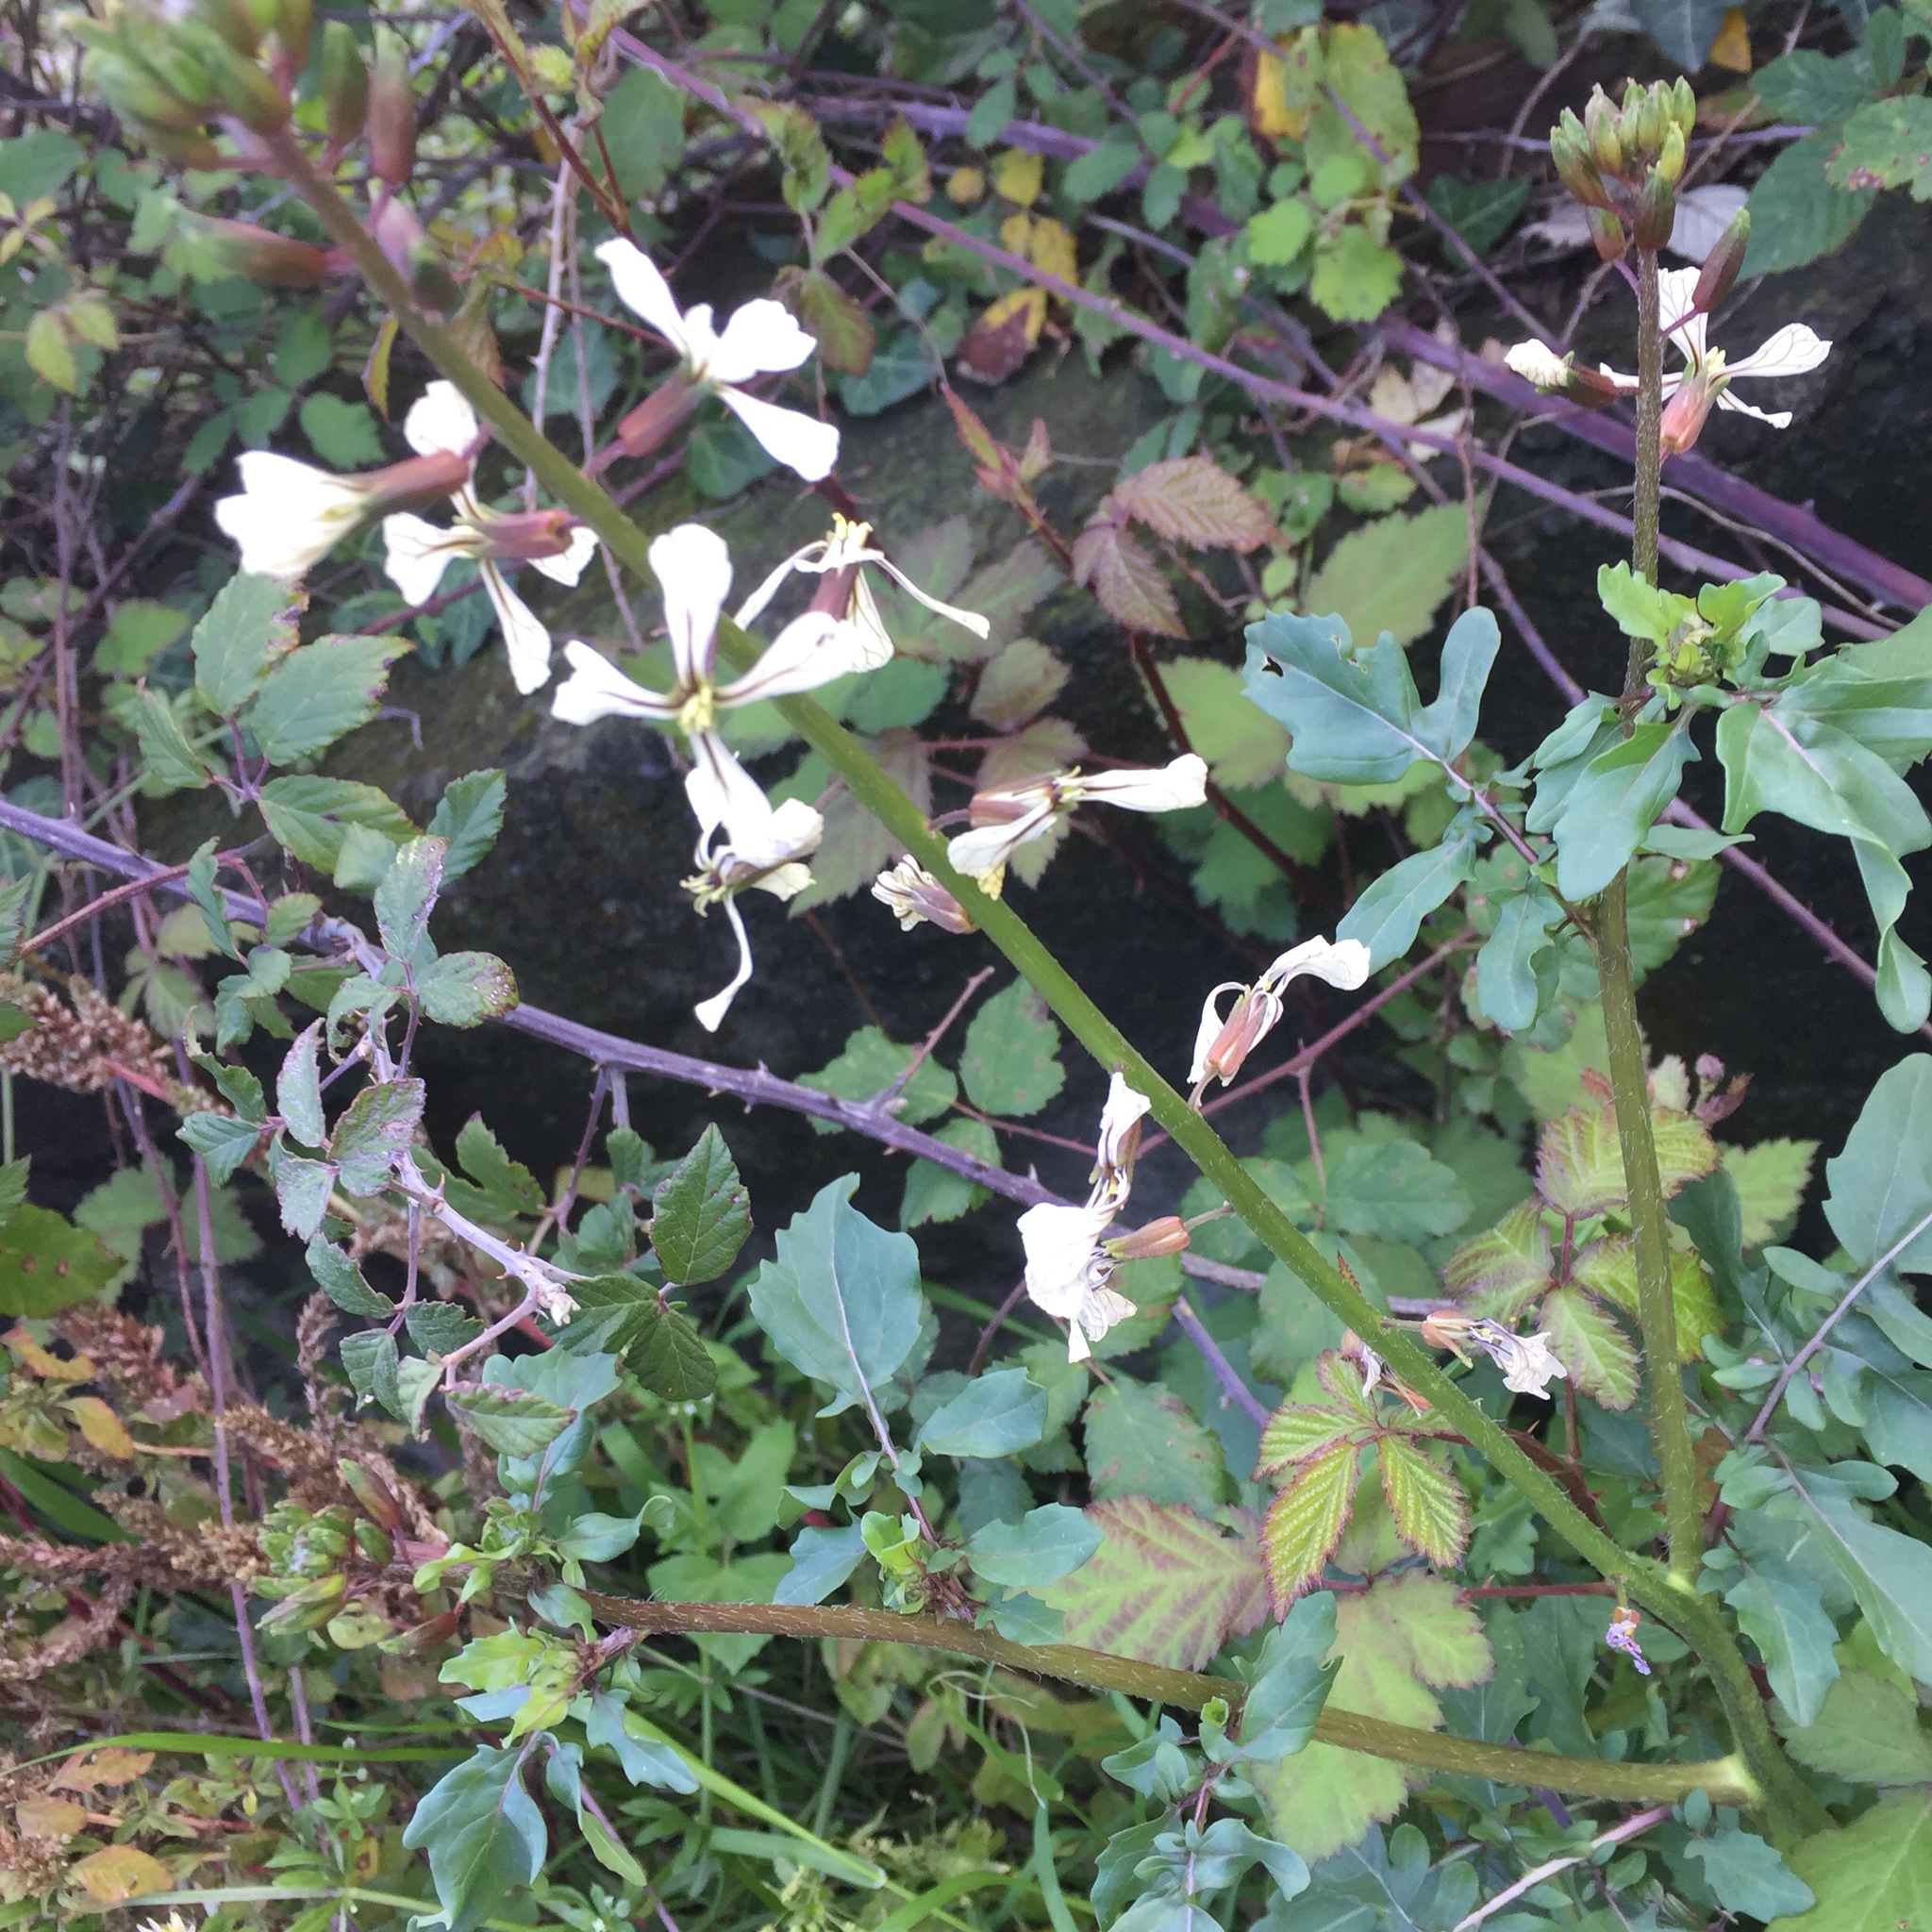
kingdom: Plantae
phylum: Tracheophyta
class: Magnoliopsida
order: Brassicales
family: Brassicaceae
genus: Eruca
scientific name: Eruca vesicaria
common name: Garden rocket
